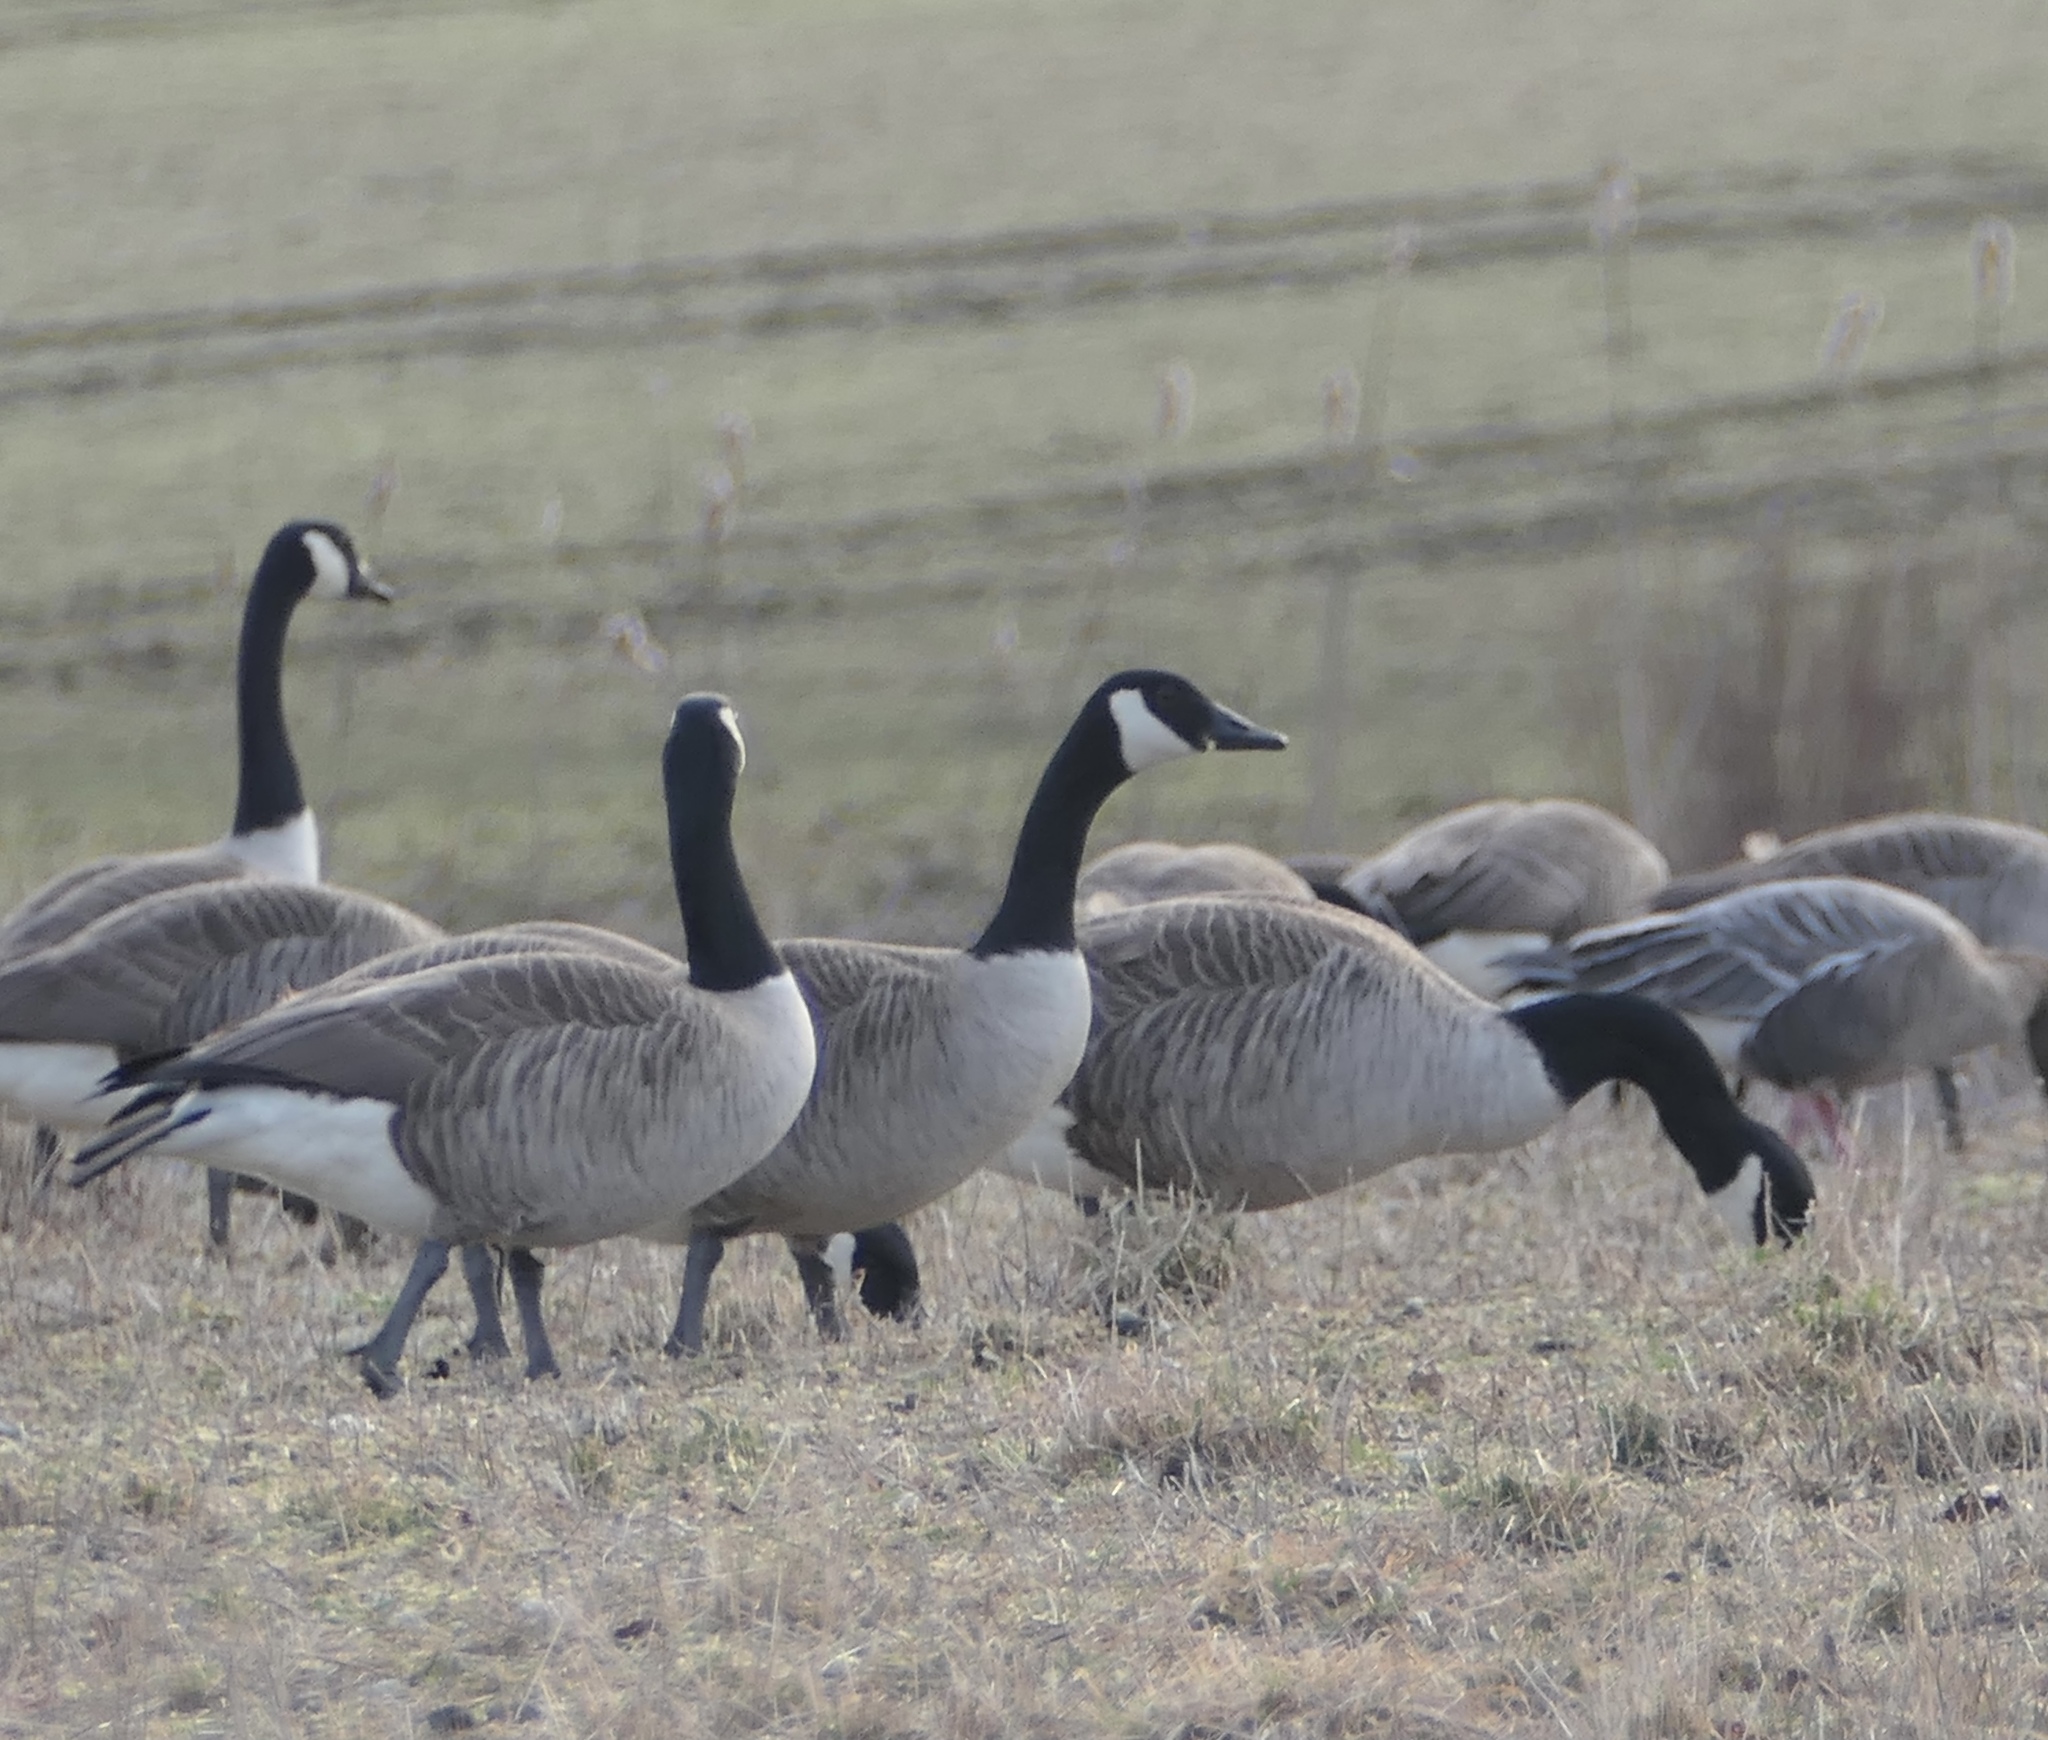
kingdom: Animalia
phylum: Chordata
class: Aves
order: Anseriformes
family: Anatidae
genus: Branta
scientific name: Branta canadensis
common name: Canada goose
